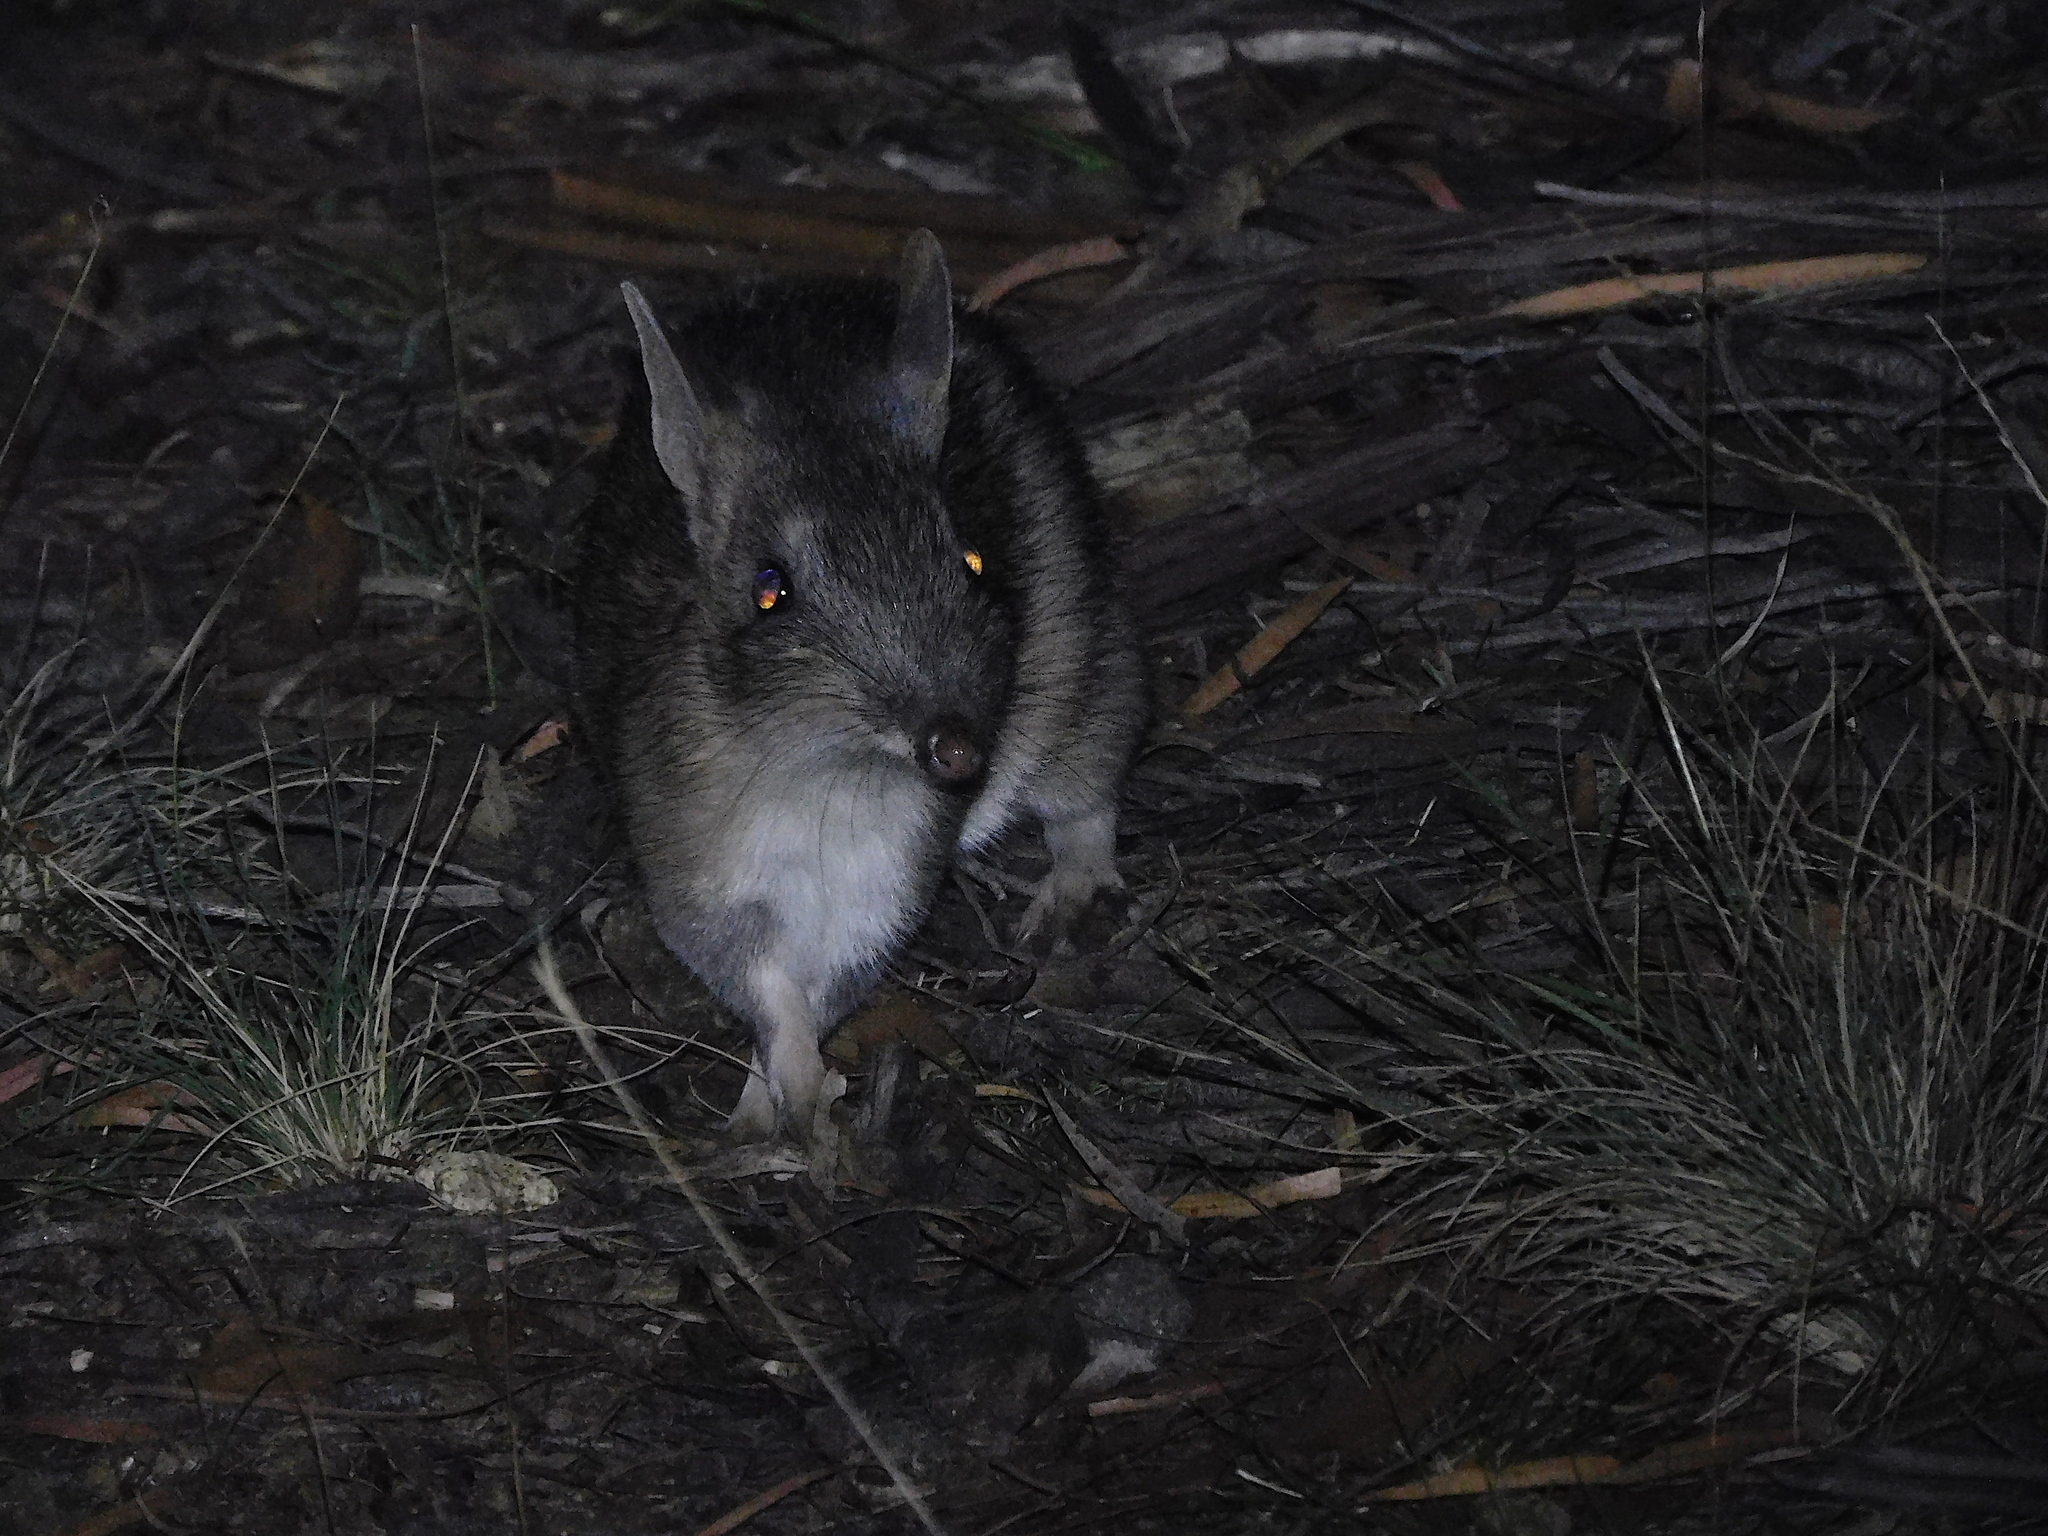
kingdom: Animalia
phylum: Chordata
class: Mammalia
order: Peramelemorphia
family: Peramelidae
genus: Perameles
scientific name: Perameles gunnii
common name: Eastern barred bandicoot
